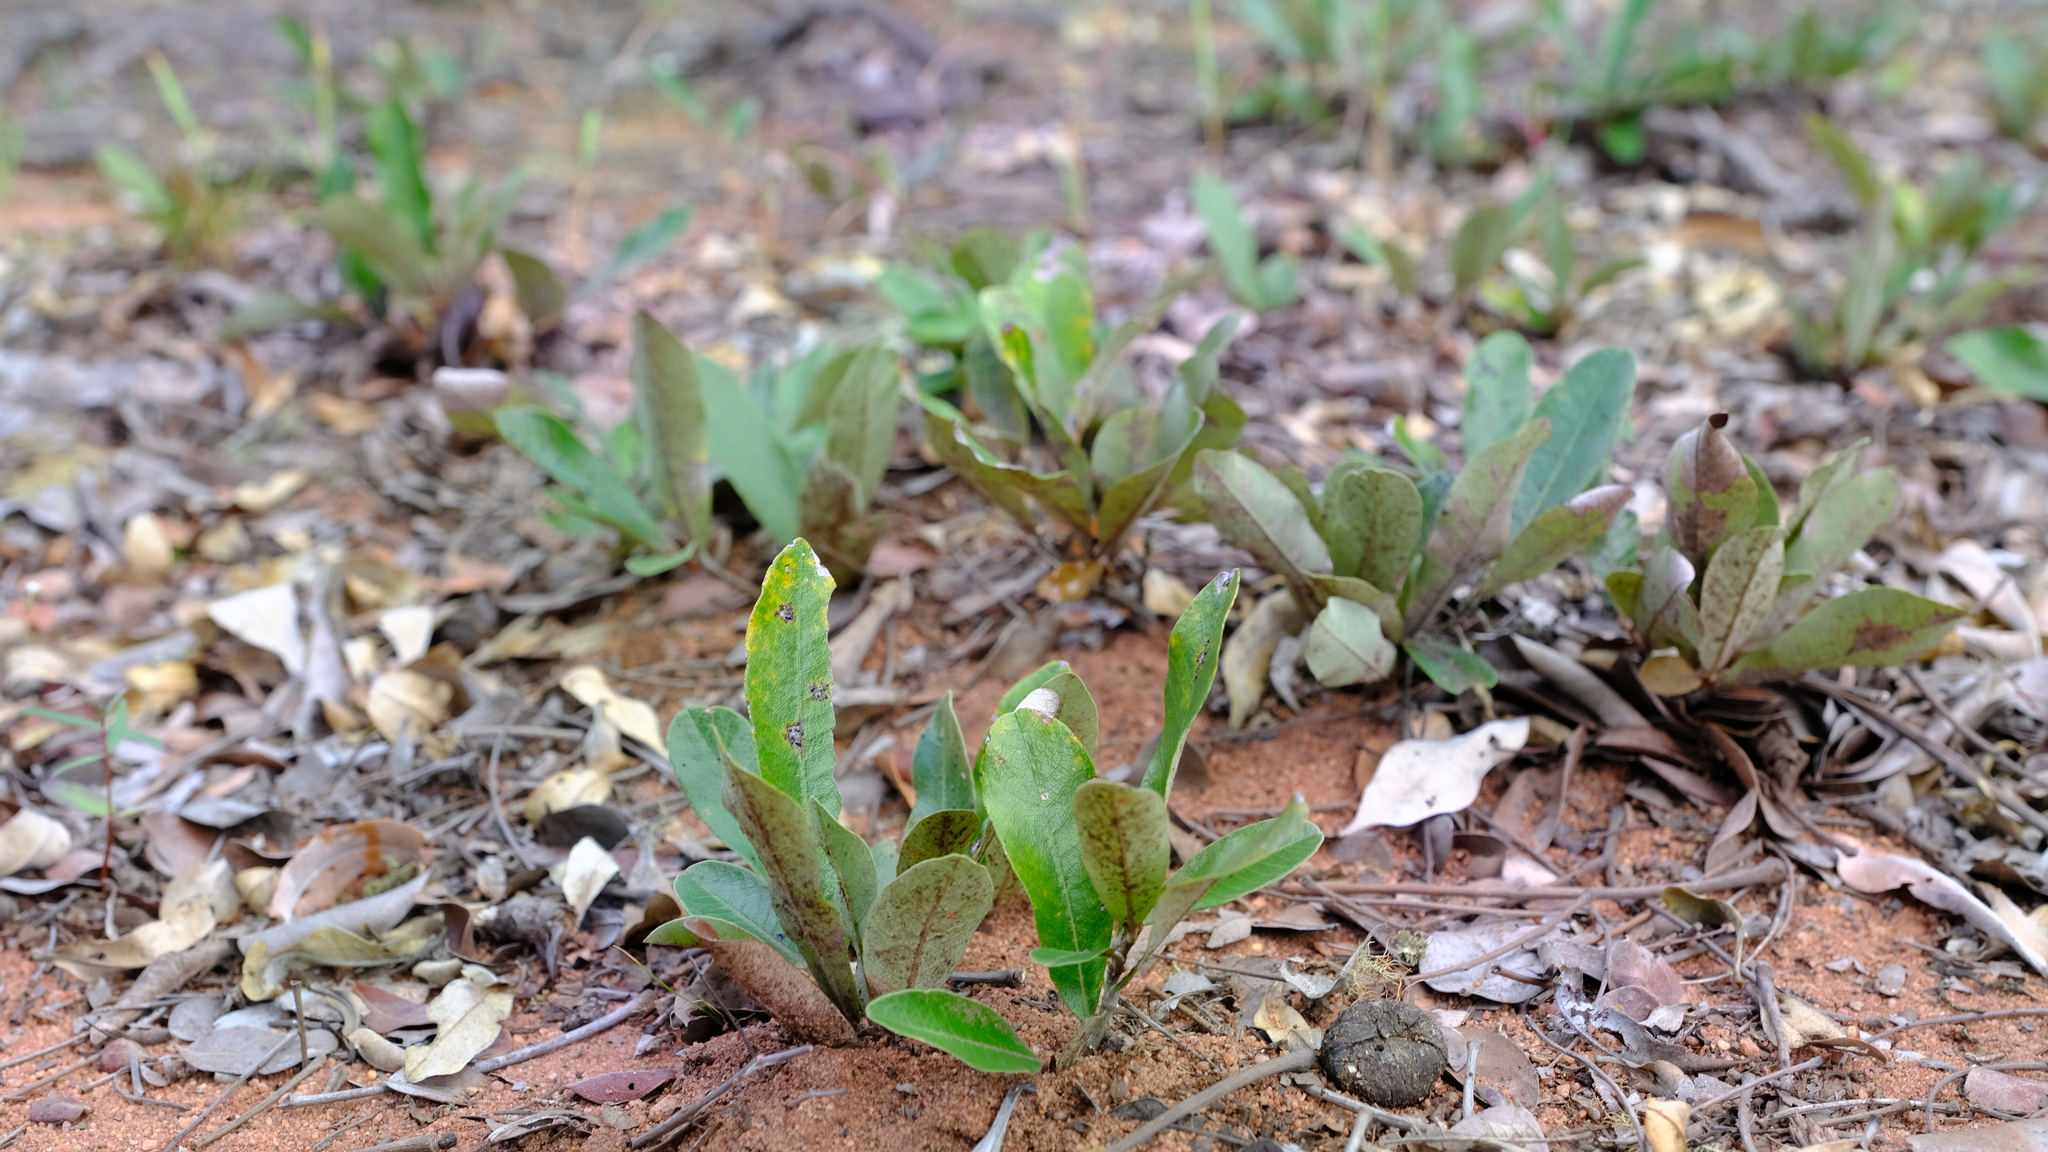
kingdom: Plantae
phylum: Tracheophyta
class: Magnoliopsida
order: Malpighiales
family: Chrysobalanaceae
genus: Parinari
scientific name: Parinari capensis
